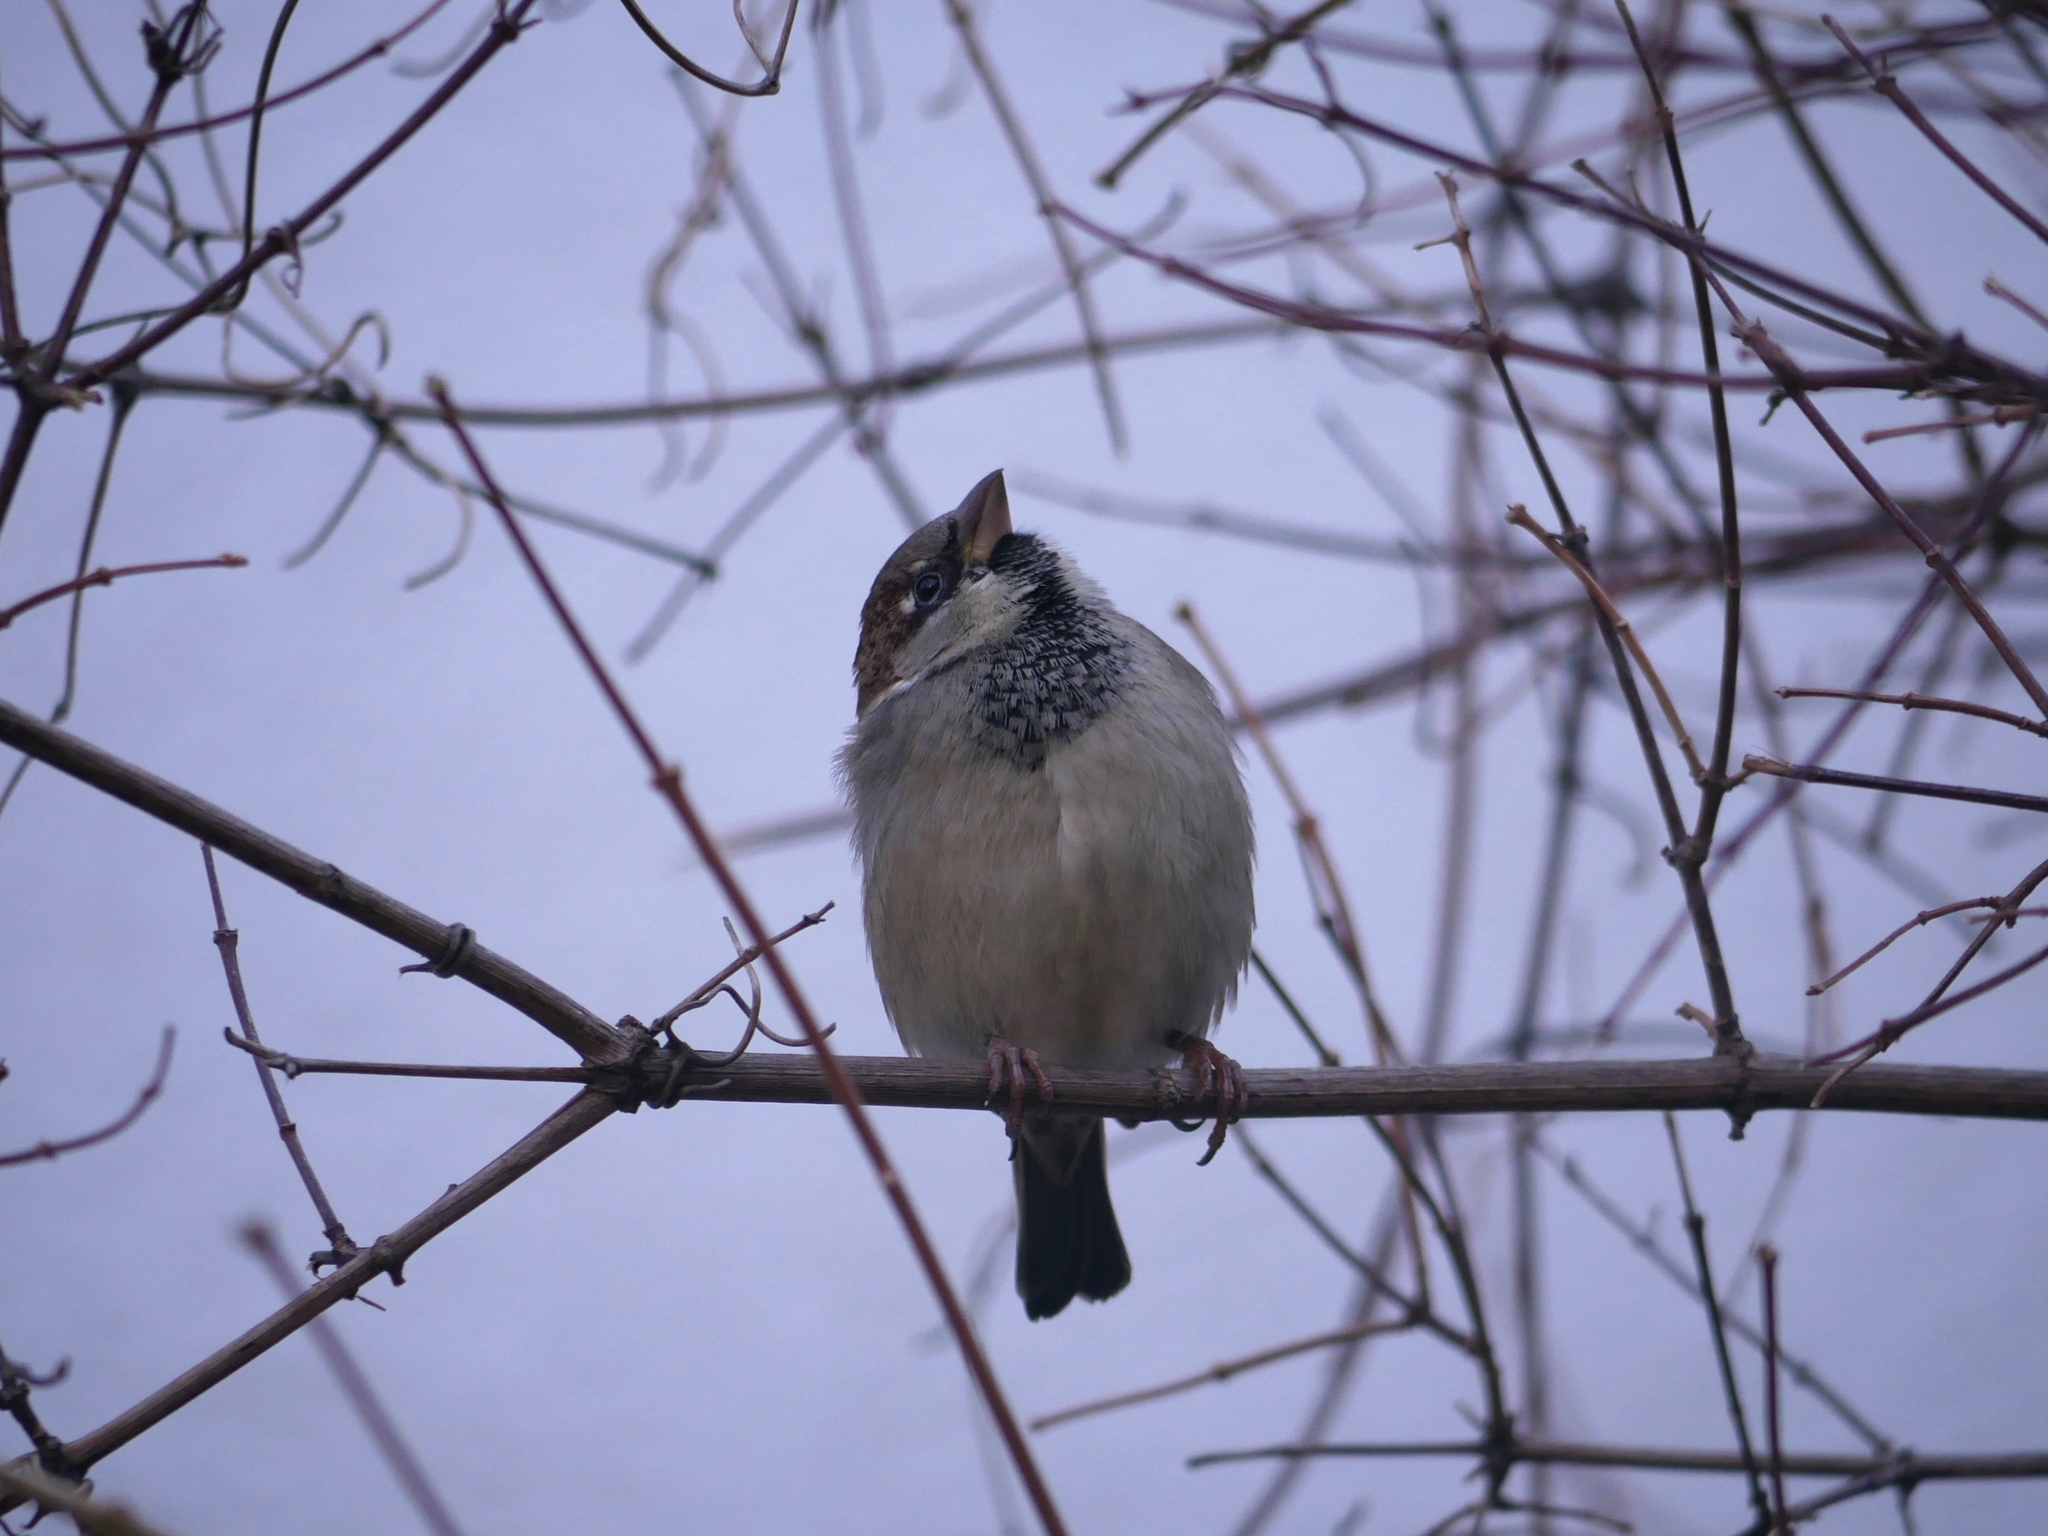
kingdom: Animalia
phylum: Chordata
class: Aves
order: Passeriformes
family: Passeridae
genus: Passer
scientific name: Passer domesticus
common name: House sparrow
